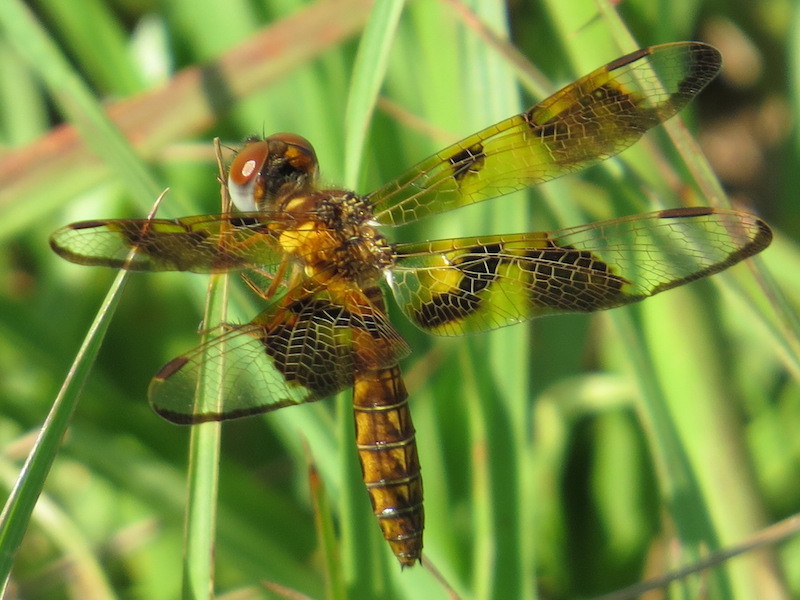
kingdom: Animalia
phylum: Arthropoda
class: Insecta
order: Odonata
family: Libellulidae
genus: Perithemis
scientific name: Perithemis tenera
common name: Eastern amberwing
